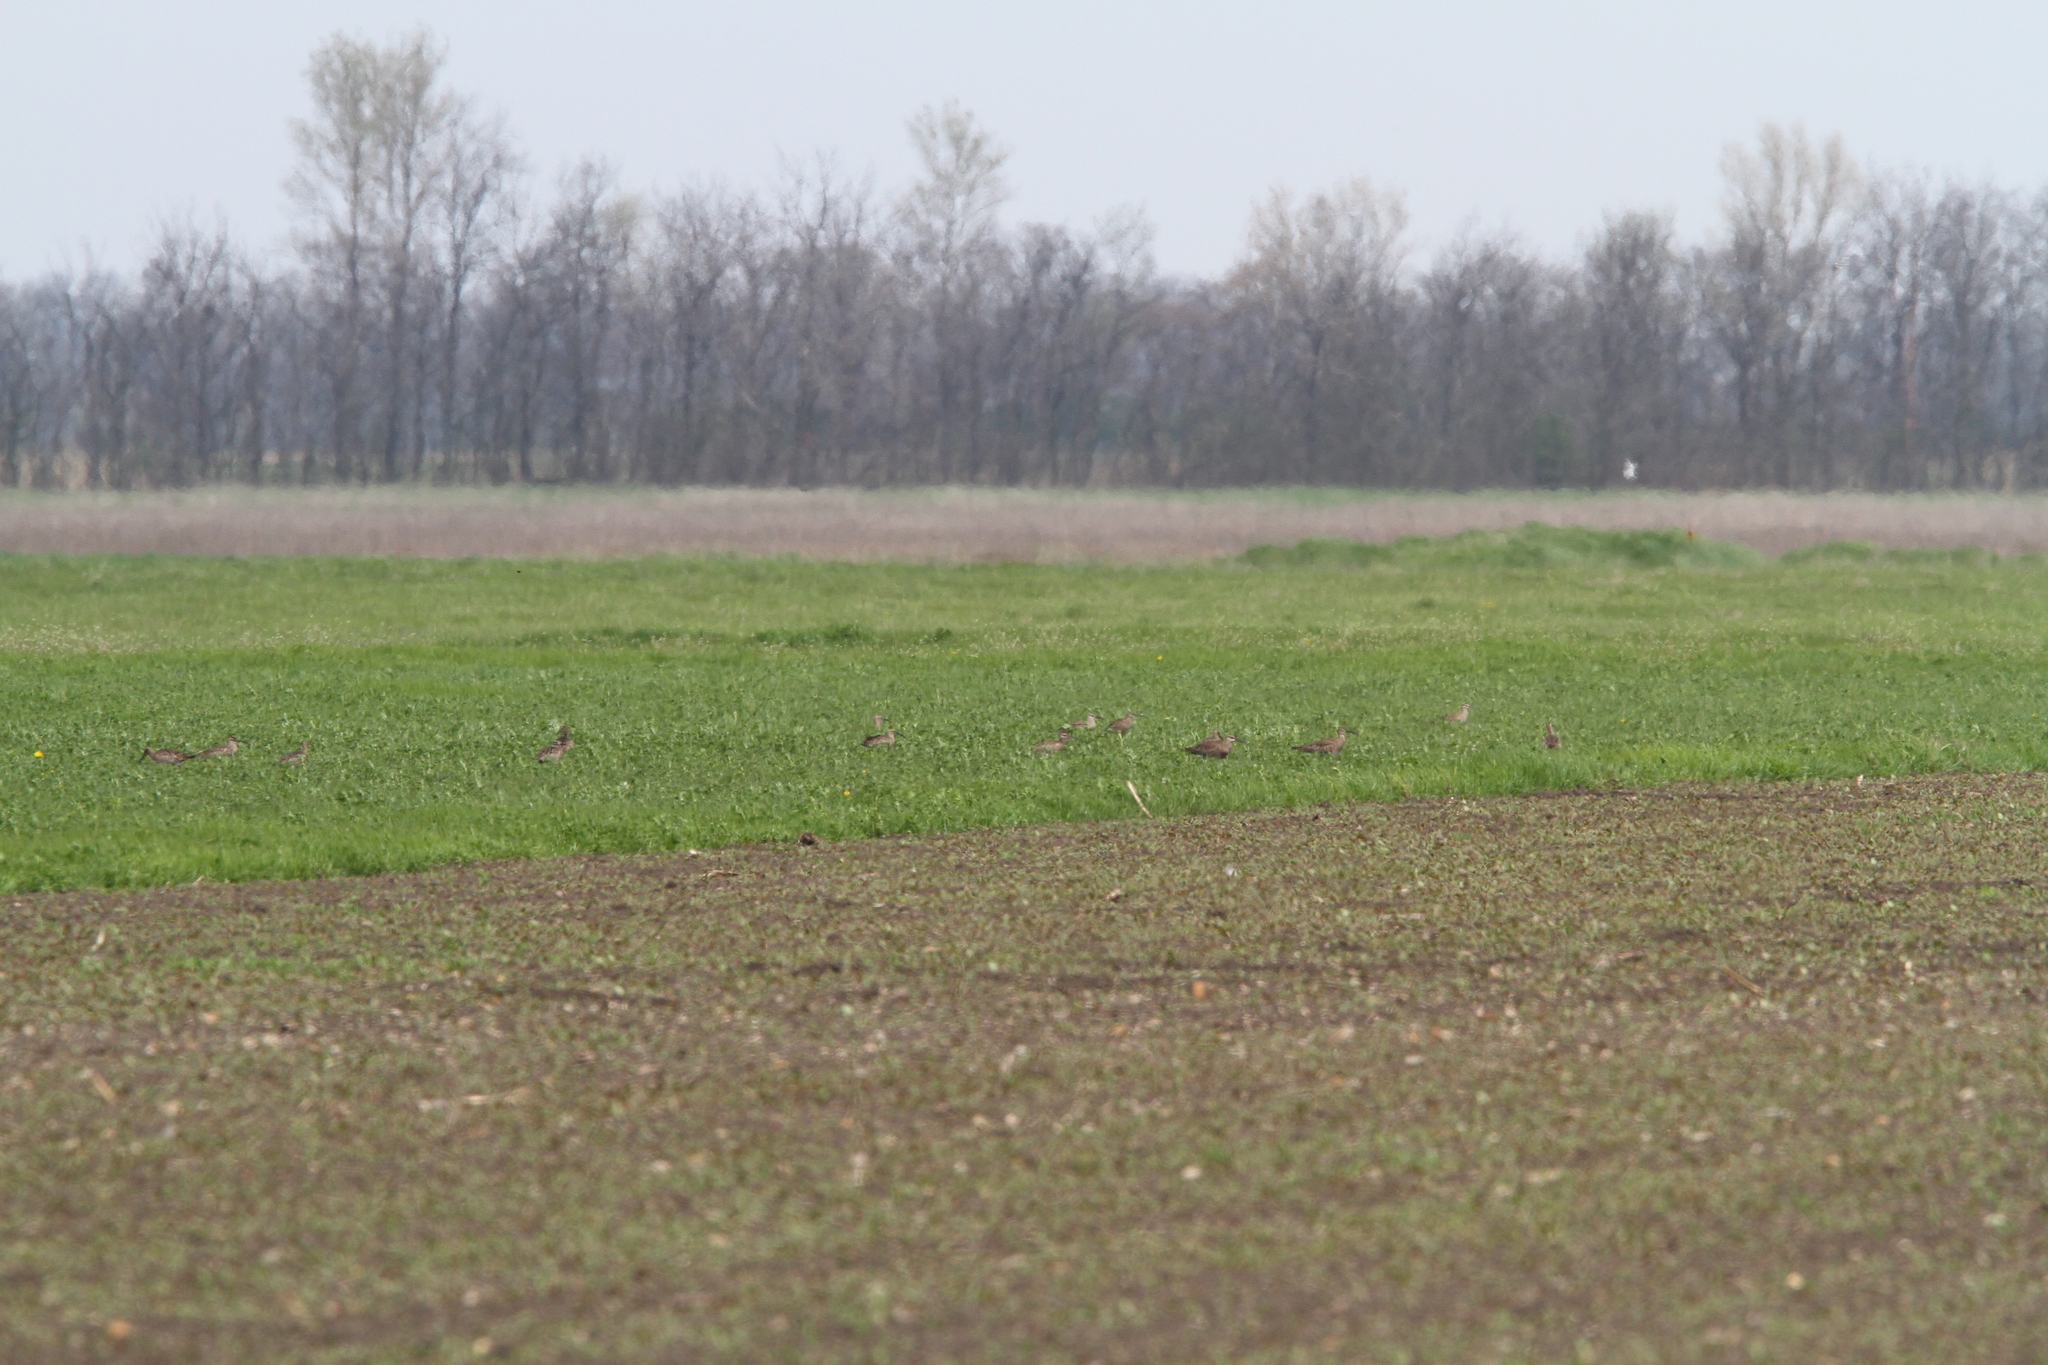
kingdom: Animalia
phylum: Chordata
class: Aves
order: Charadriiformes
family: Scolopacidae
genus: Numenius
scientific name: Numenius phaeopus
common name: Whimbrel
